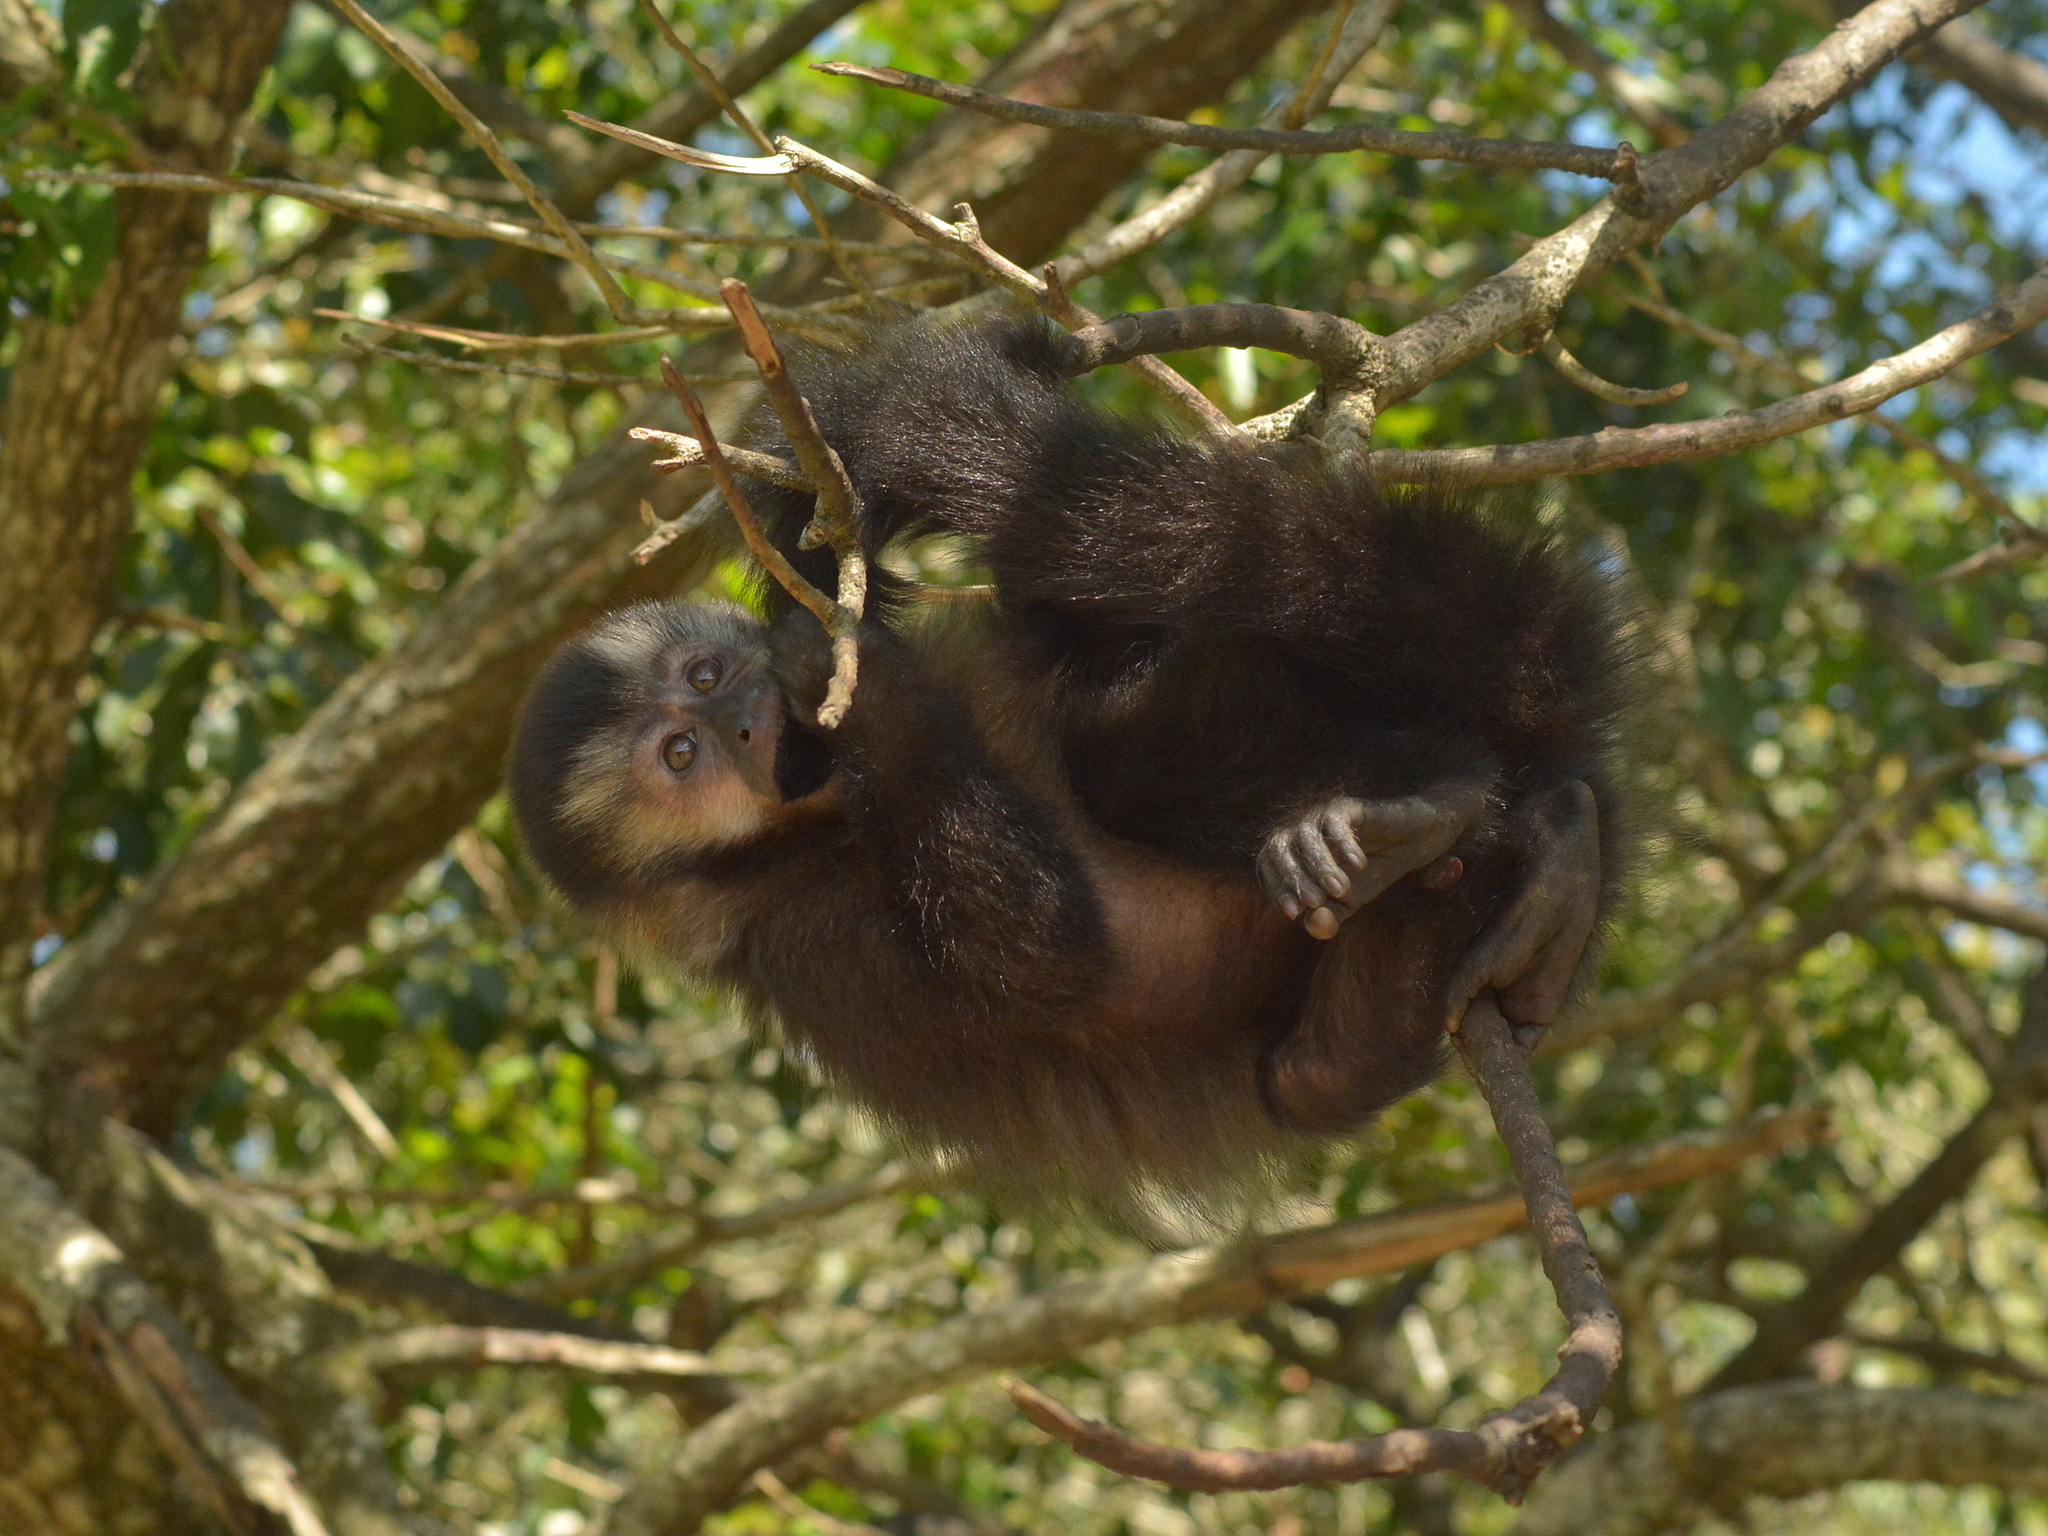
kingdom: Animalia
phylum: Chordata
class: Mammalia
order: Primates
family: Cebidae
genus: Sapajus
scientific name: Sapajus nigritus
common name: Black capuchin
